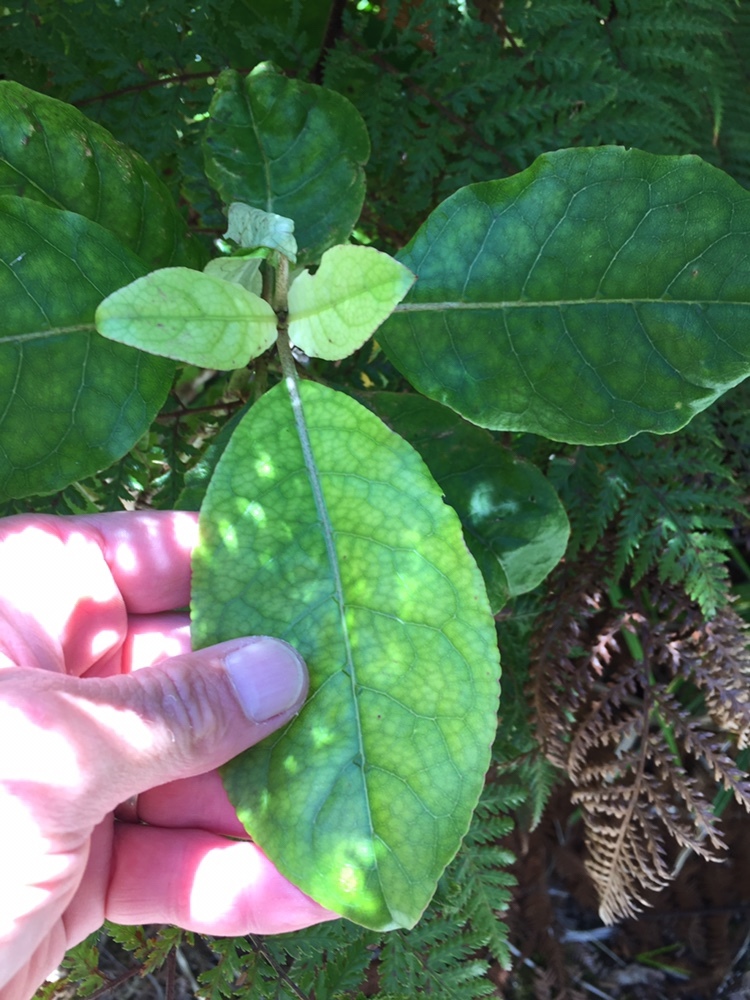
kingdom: Plantae
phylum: Tracheophyta
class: Magnoliopsida
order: Gentianales
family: Rubiaceae
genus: Coprosma
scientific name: Coprosma autumnalis
